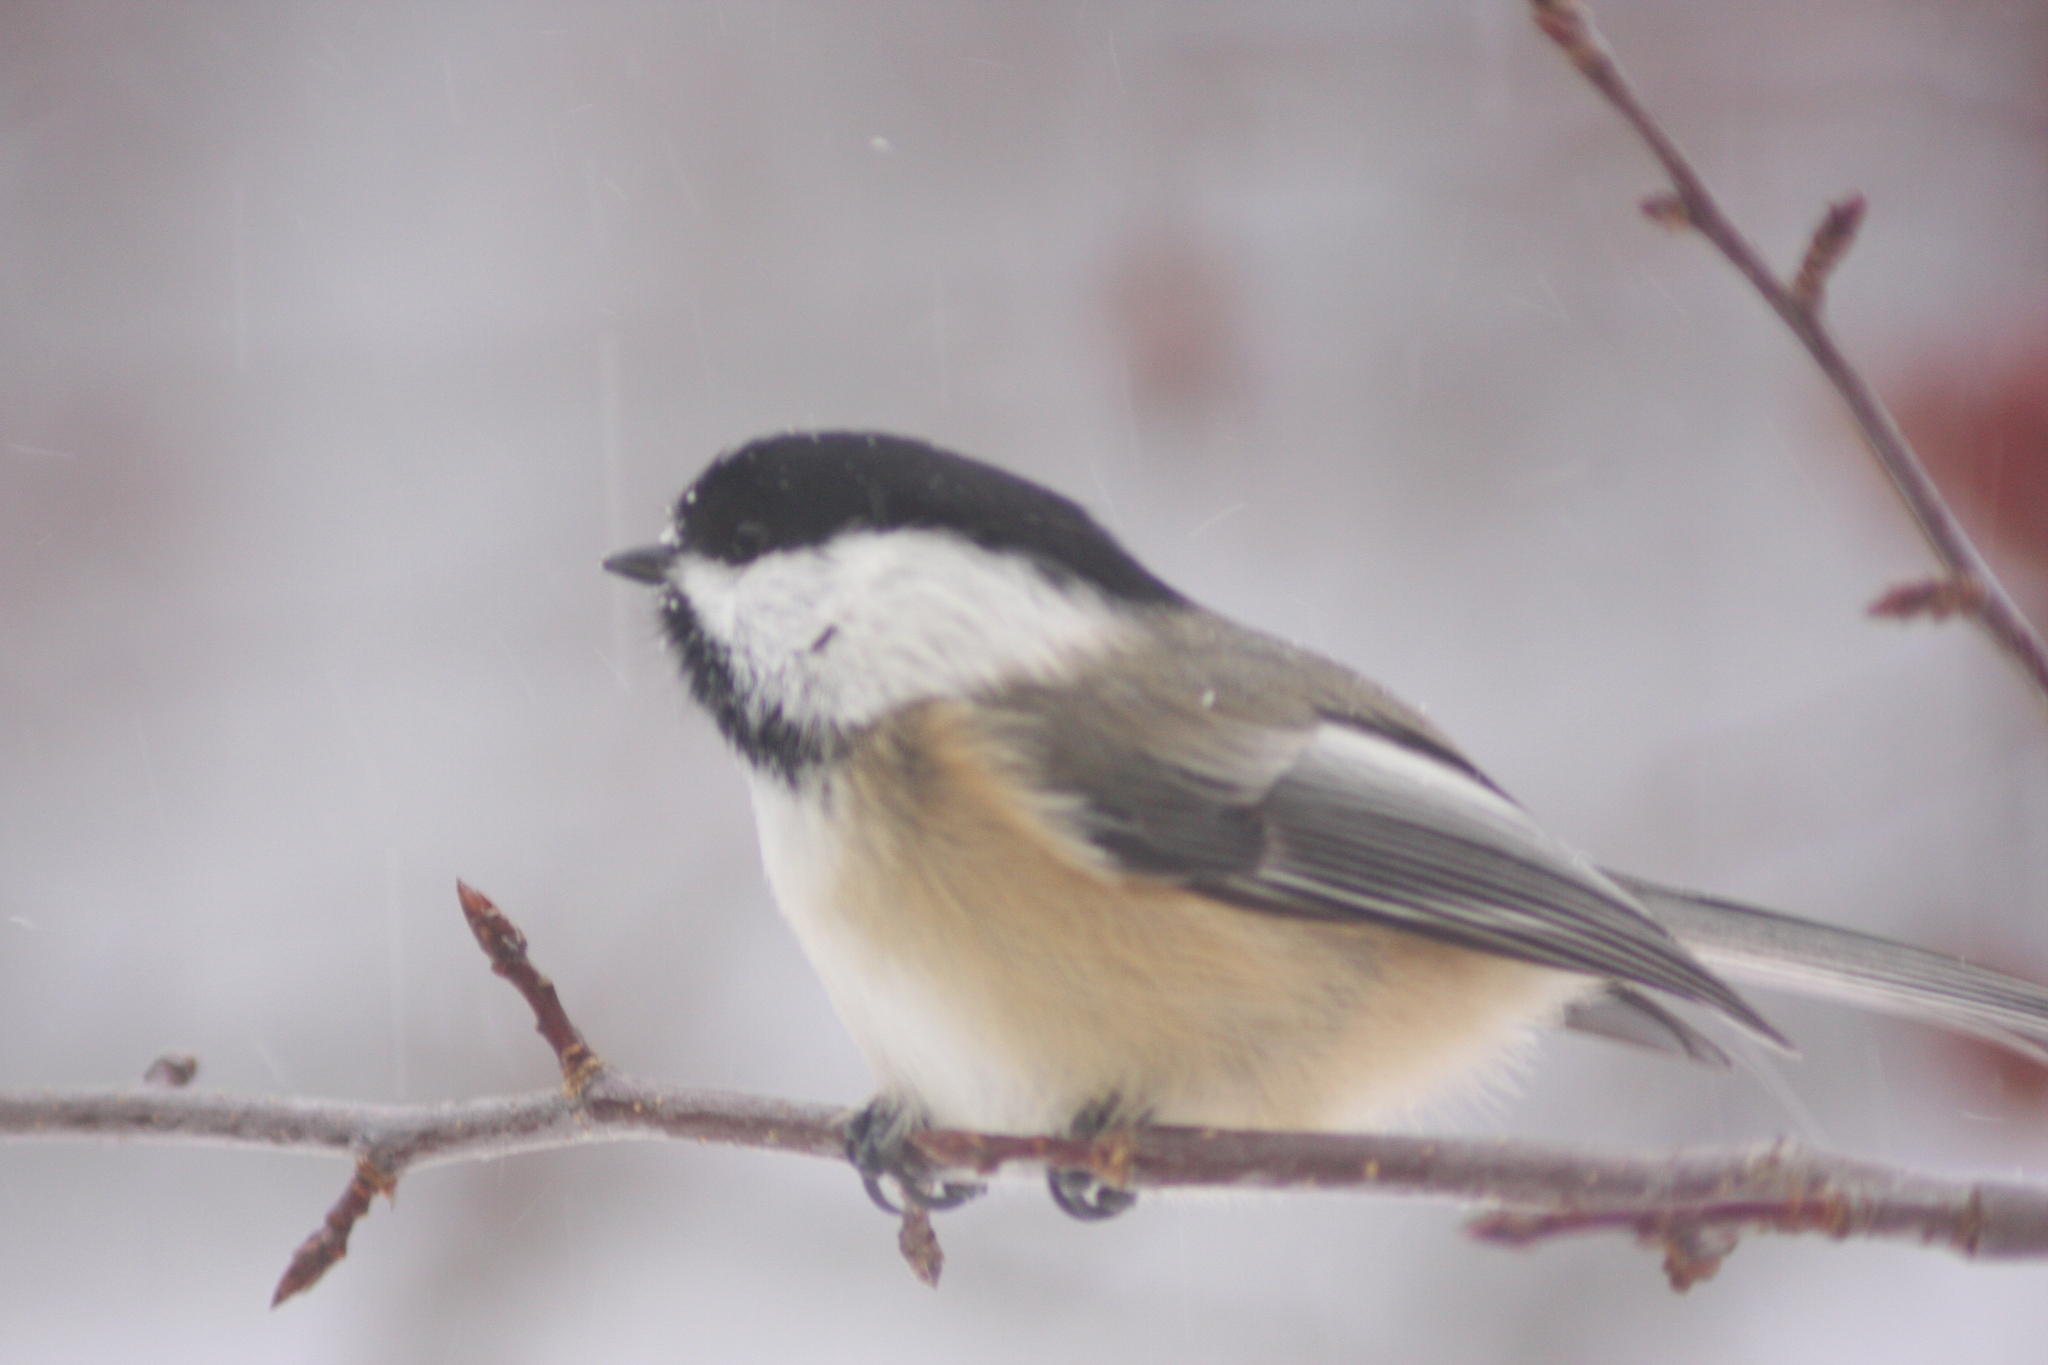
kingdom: Animalia
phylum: Chordata
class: Aves
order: Passeriformes
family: Paridae
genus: Poecile
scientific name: Poecile atricapillus
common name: Black-capped chickadee
